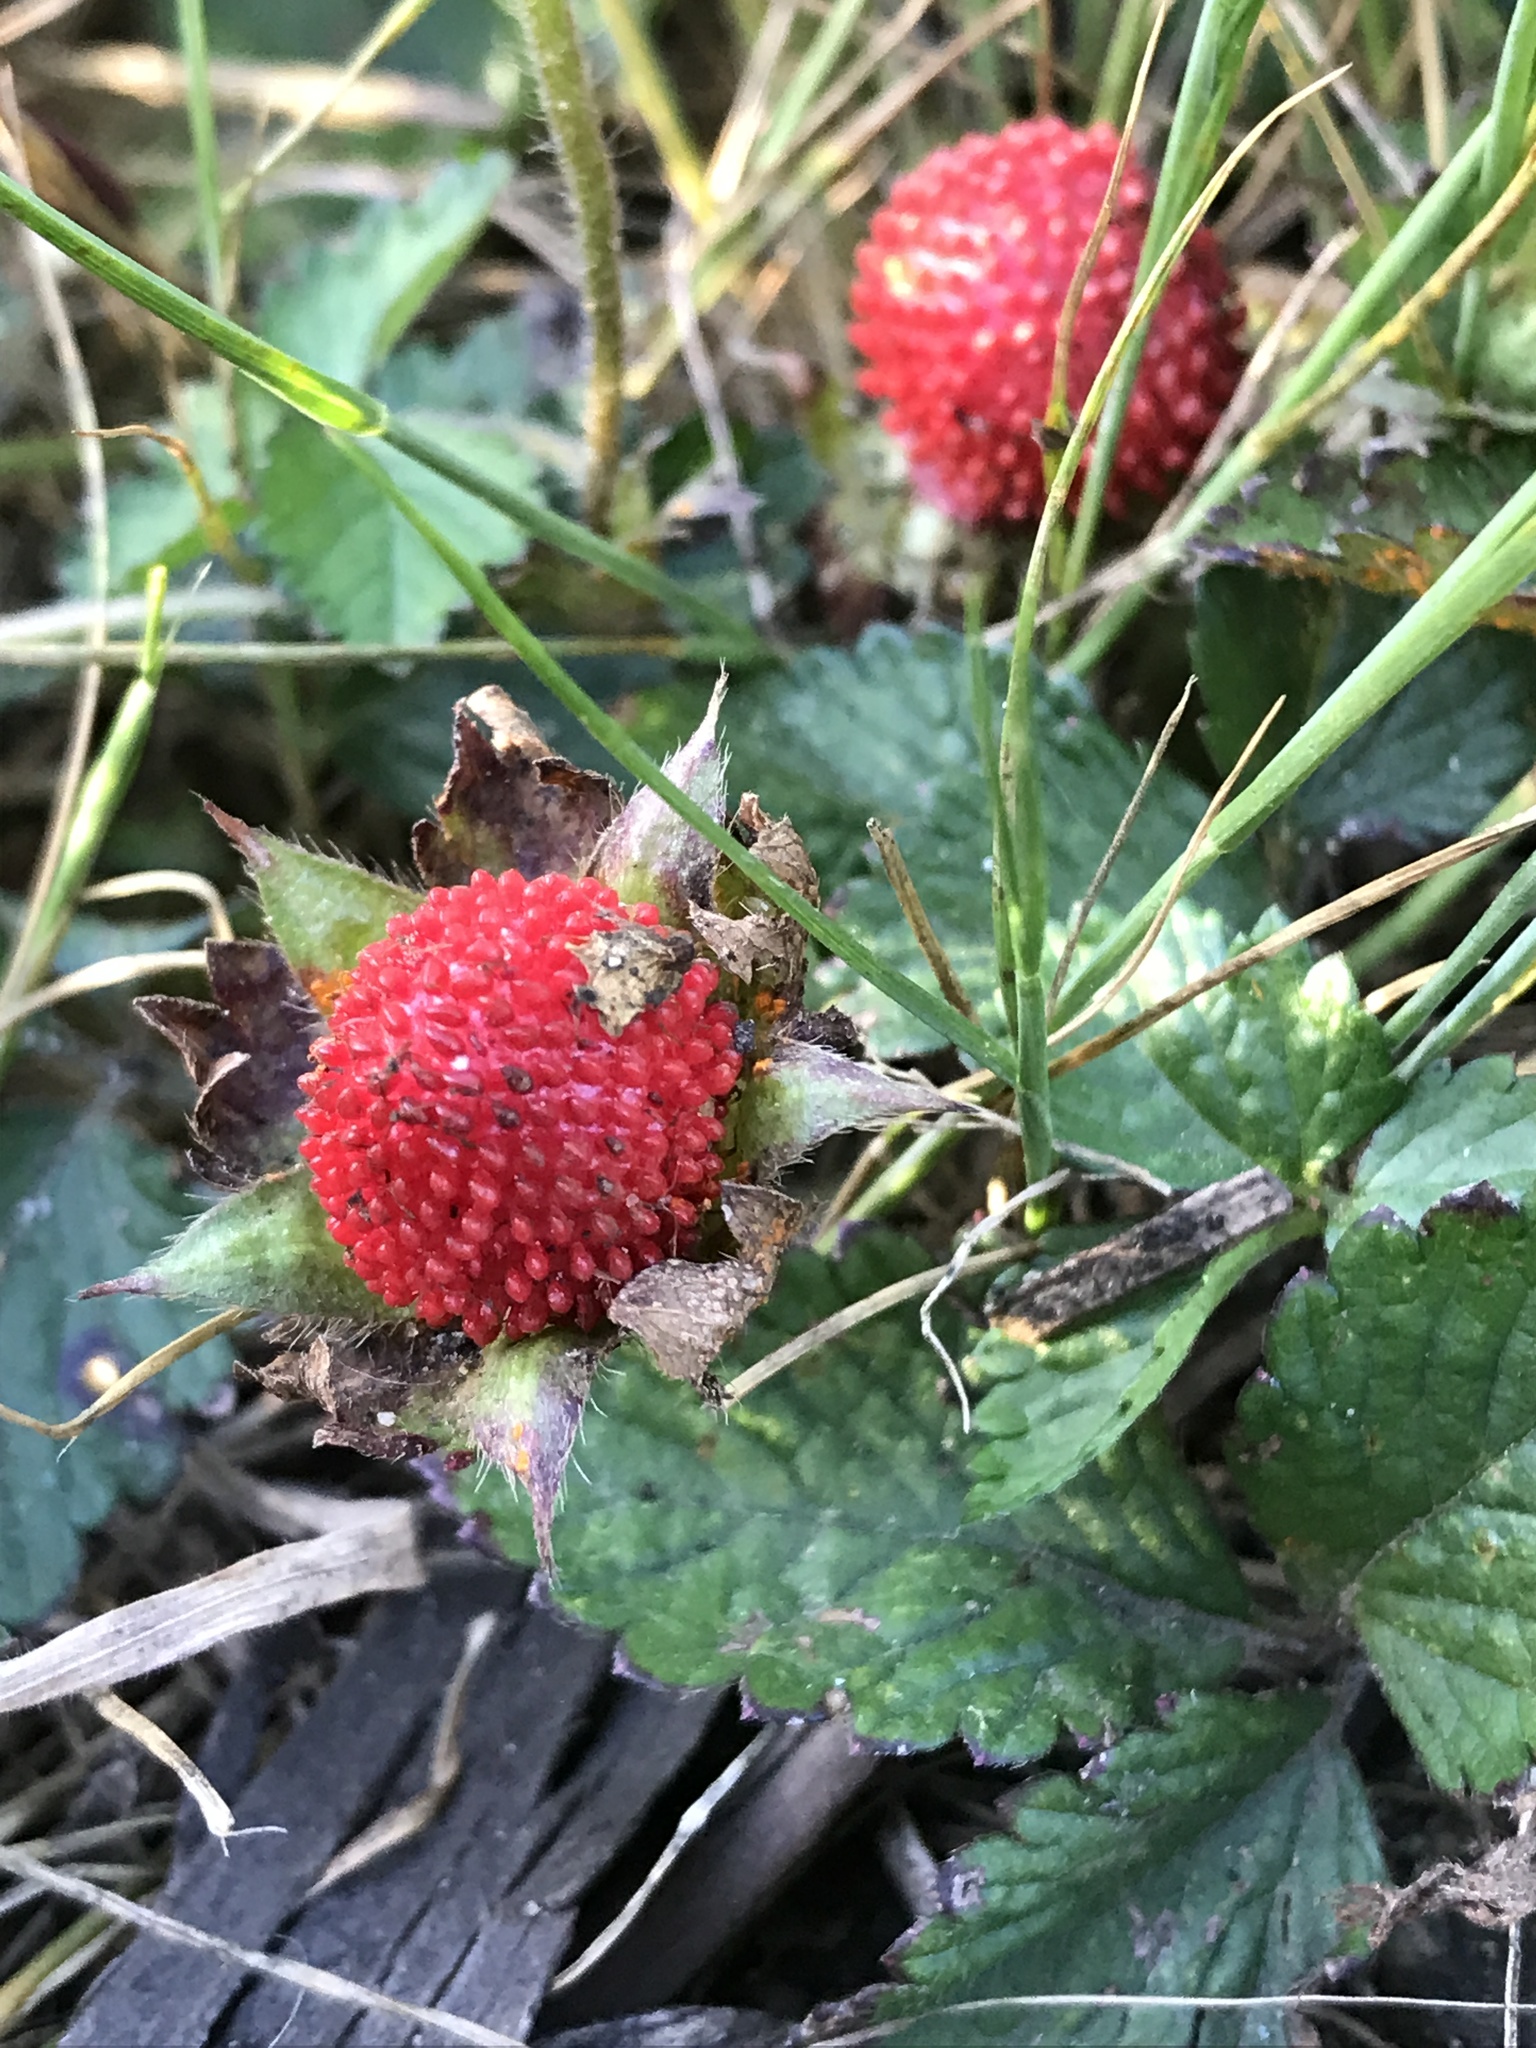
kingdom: Plantae
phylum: Tracheophyta
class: Magnoliopsida
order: Rosales
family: Rosaceae
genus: Potentilla
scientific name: Potentilla indica
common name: Yellow-flowered strawberry
